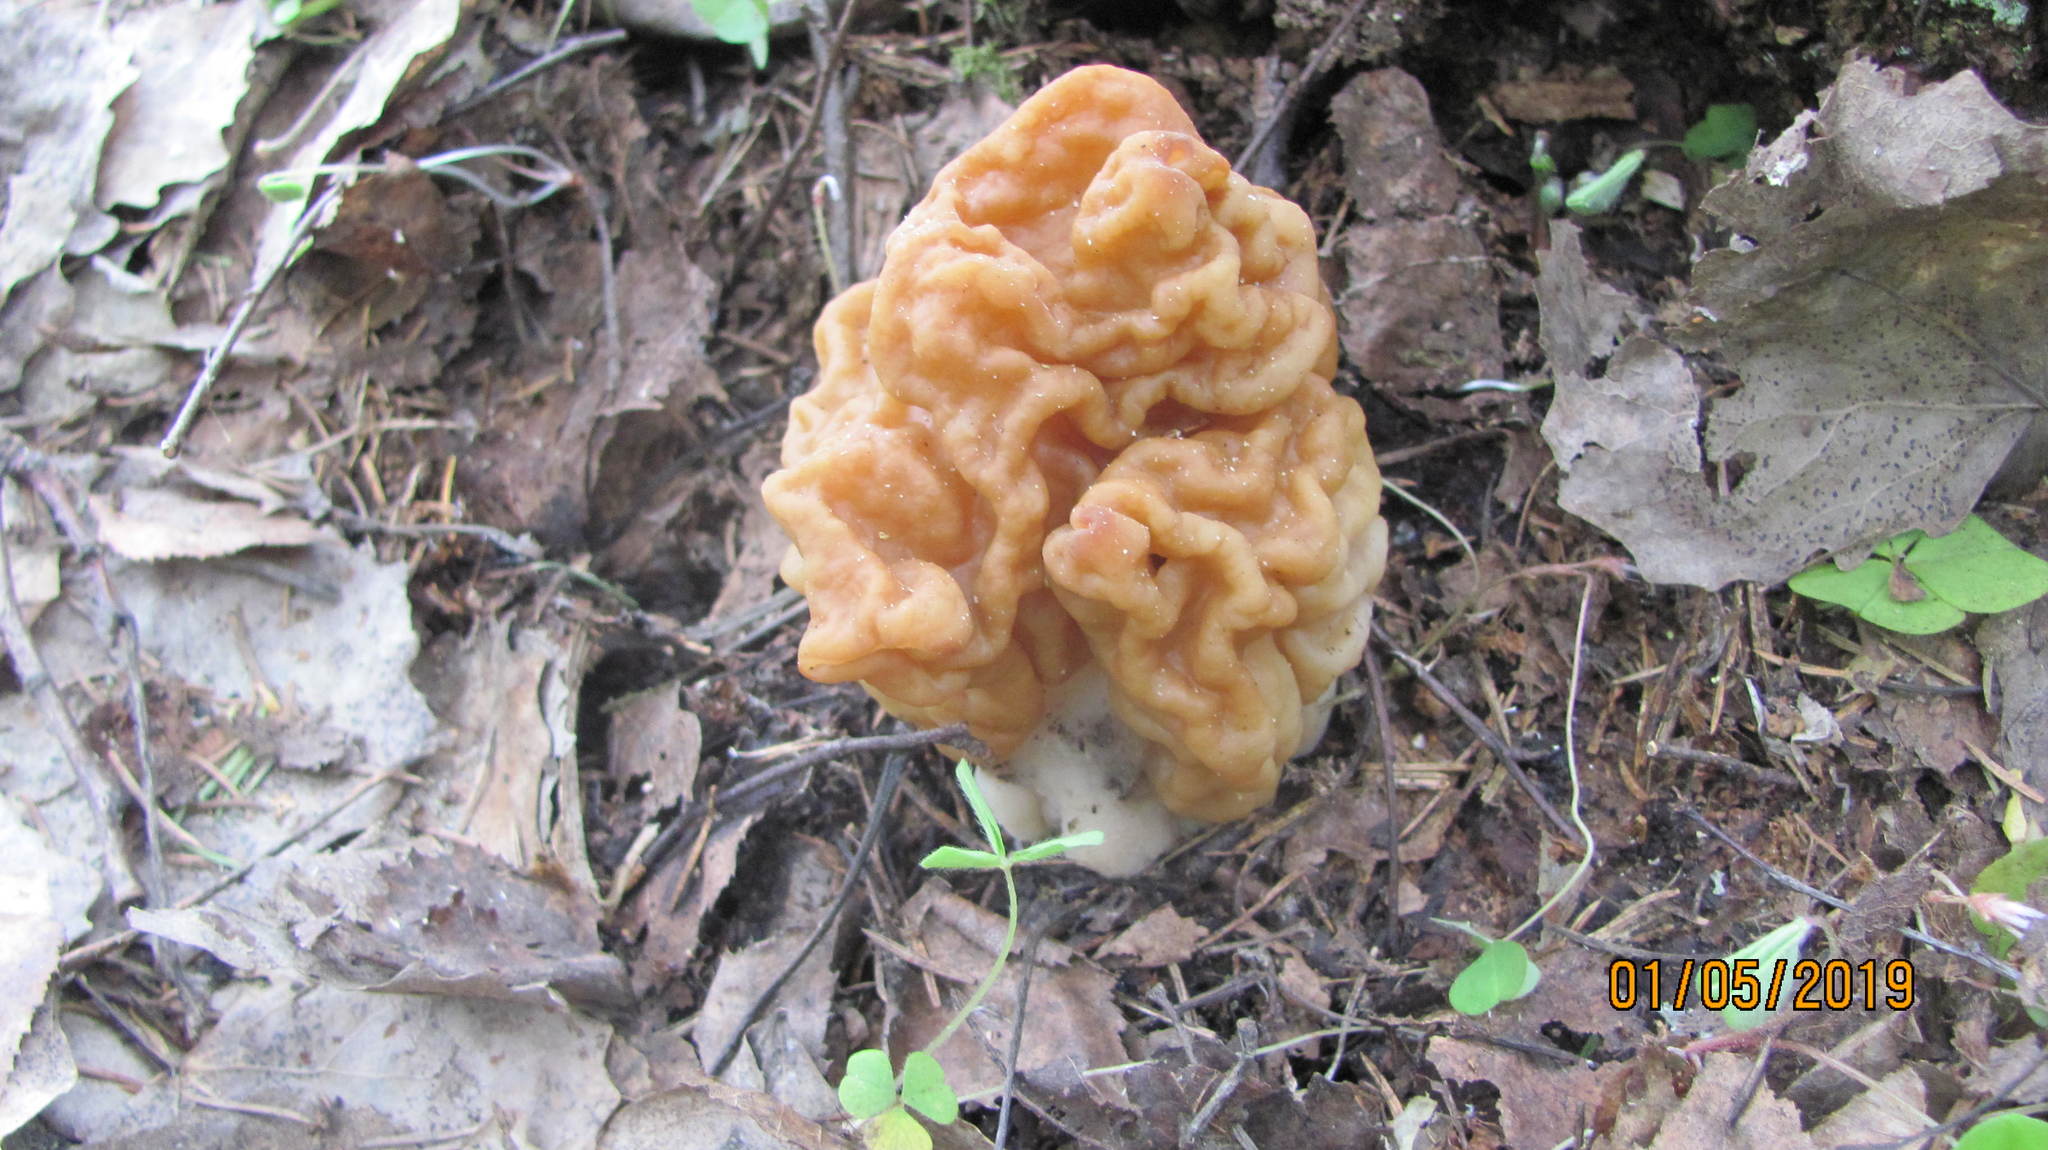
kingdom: Fungi
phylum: Ascomycota
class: Pezizomycetes
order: Pezizales
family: Discinaceae
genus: Gyromitra
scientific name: Gyromitra gigas
